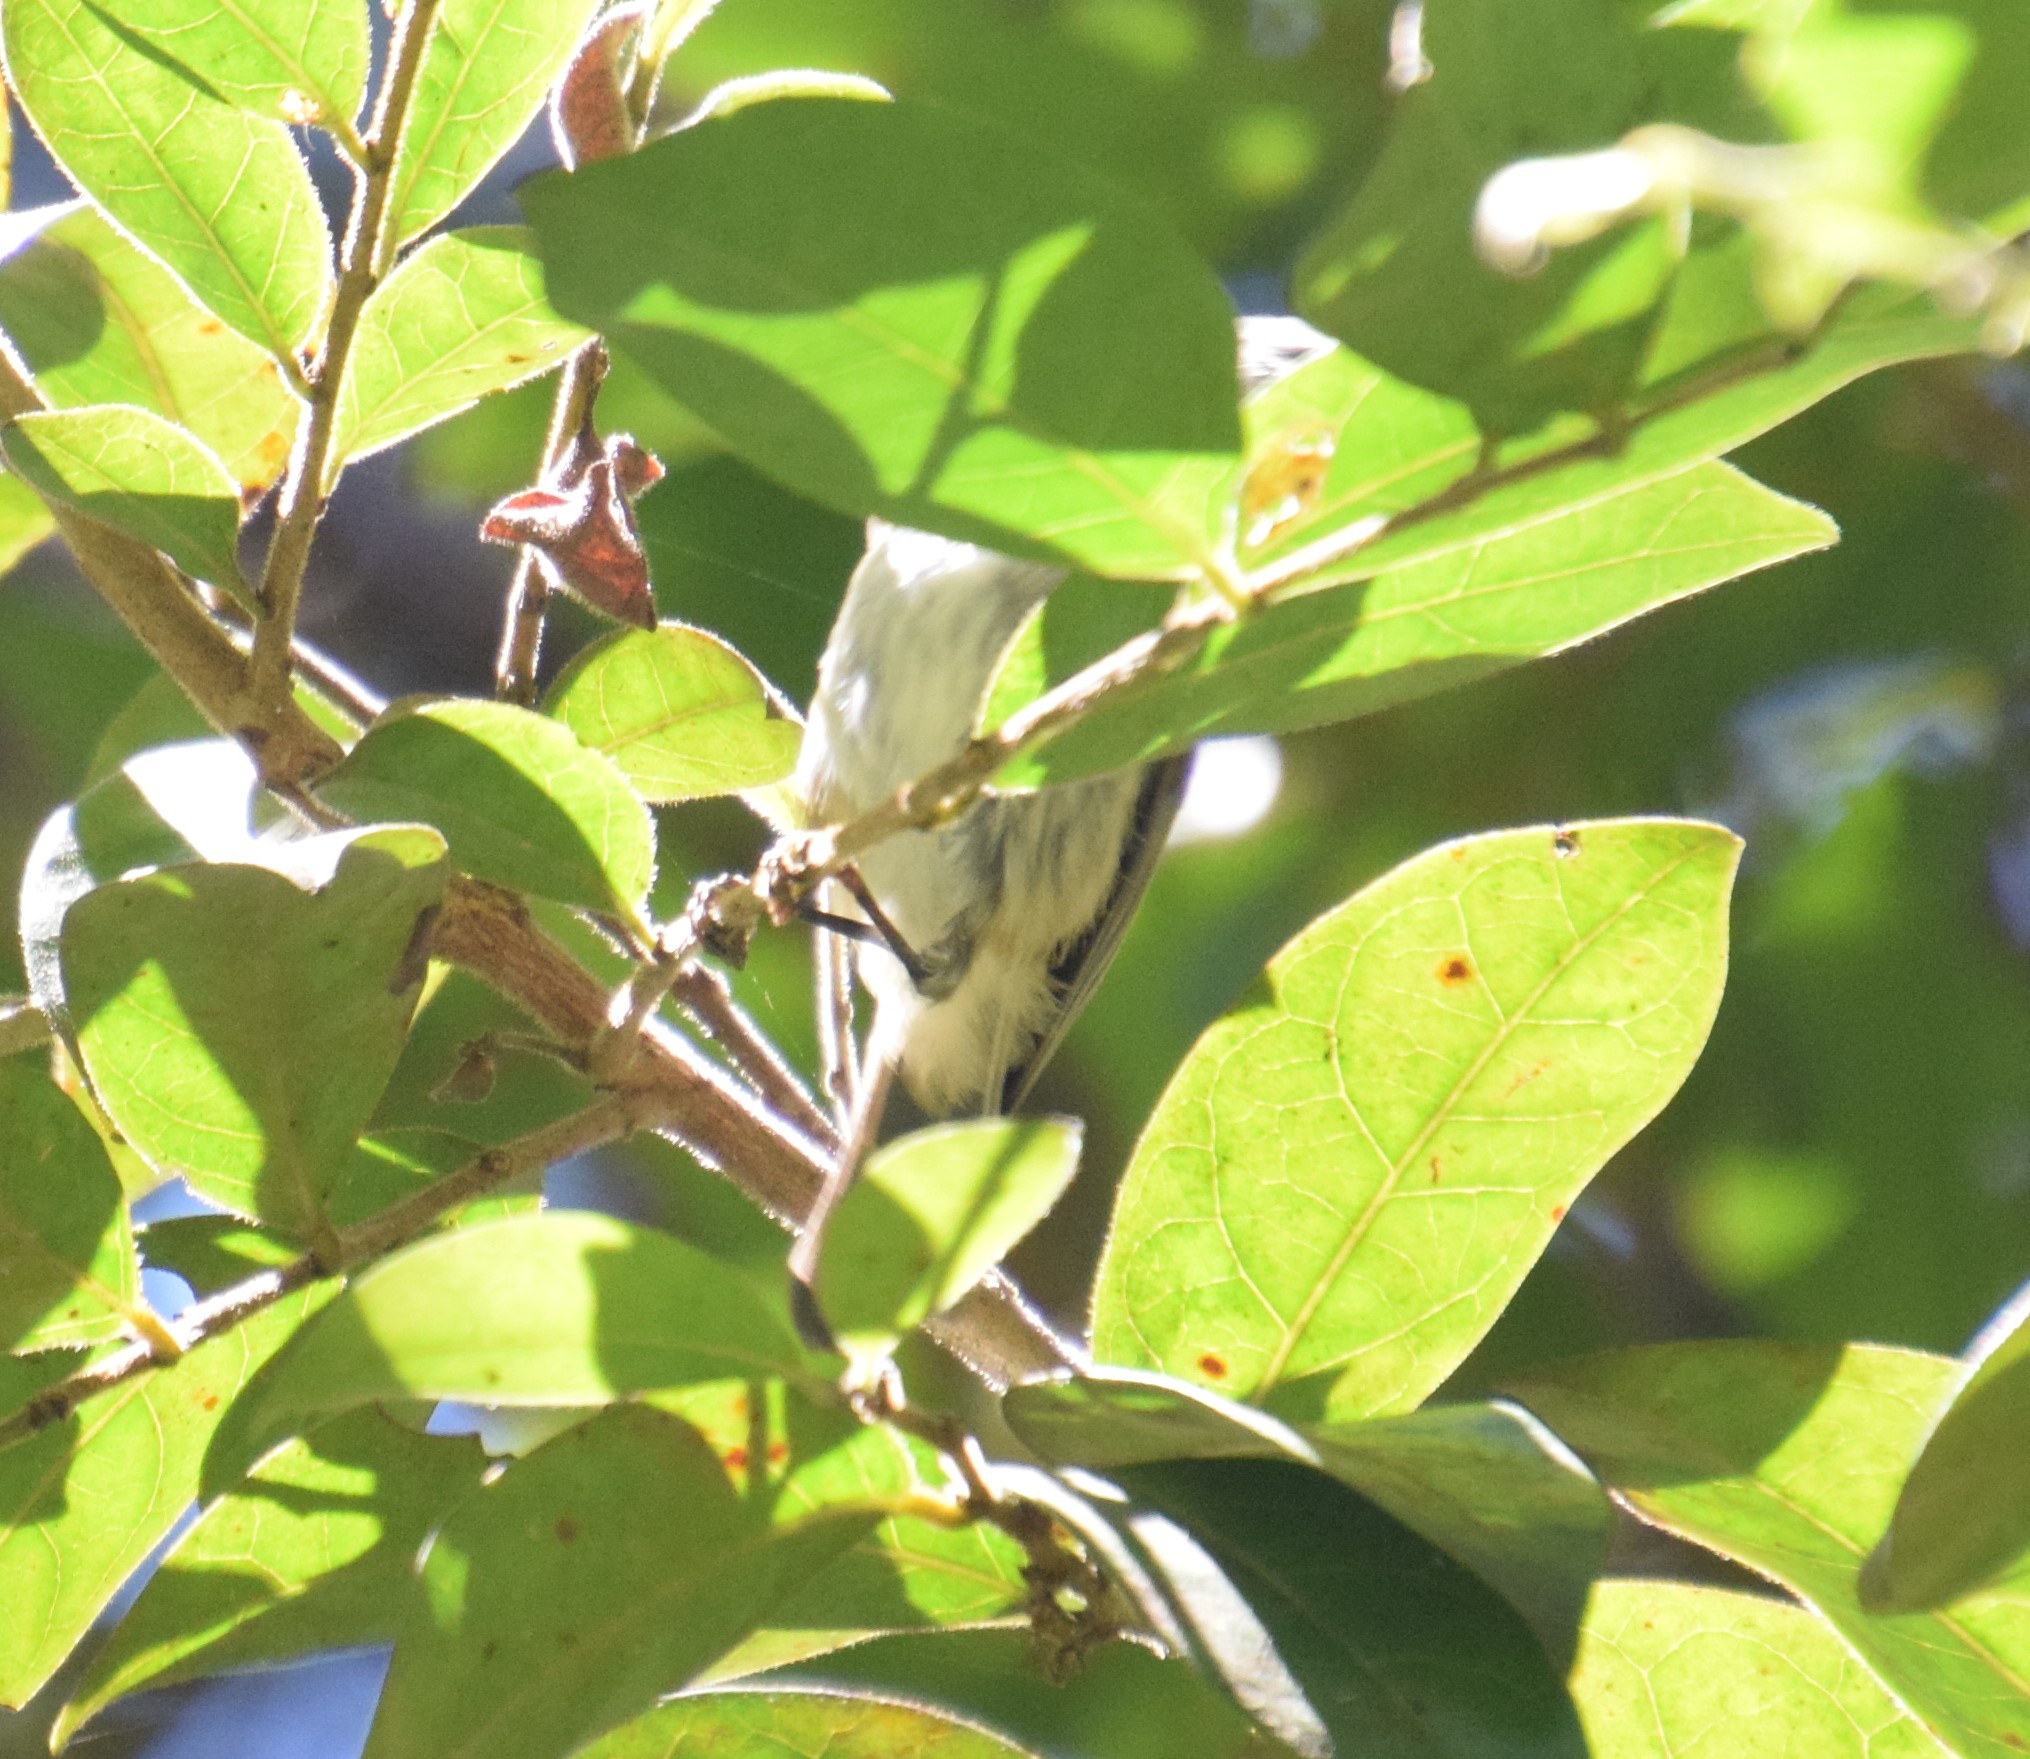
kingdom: Animalia
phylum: Chordata
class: Aves
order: Passeriformes
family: Acanthizidae
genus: Gerygone
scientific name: Gerygone mouki
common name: Brown gerygone
